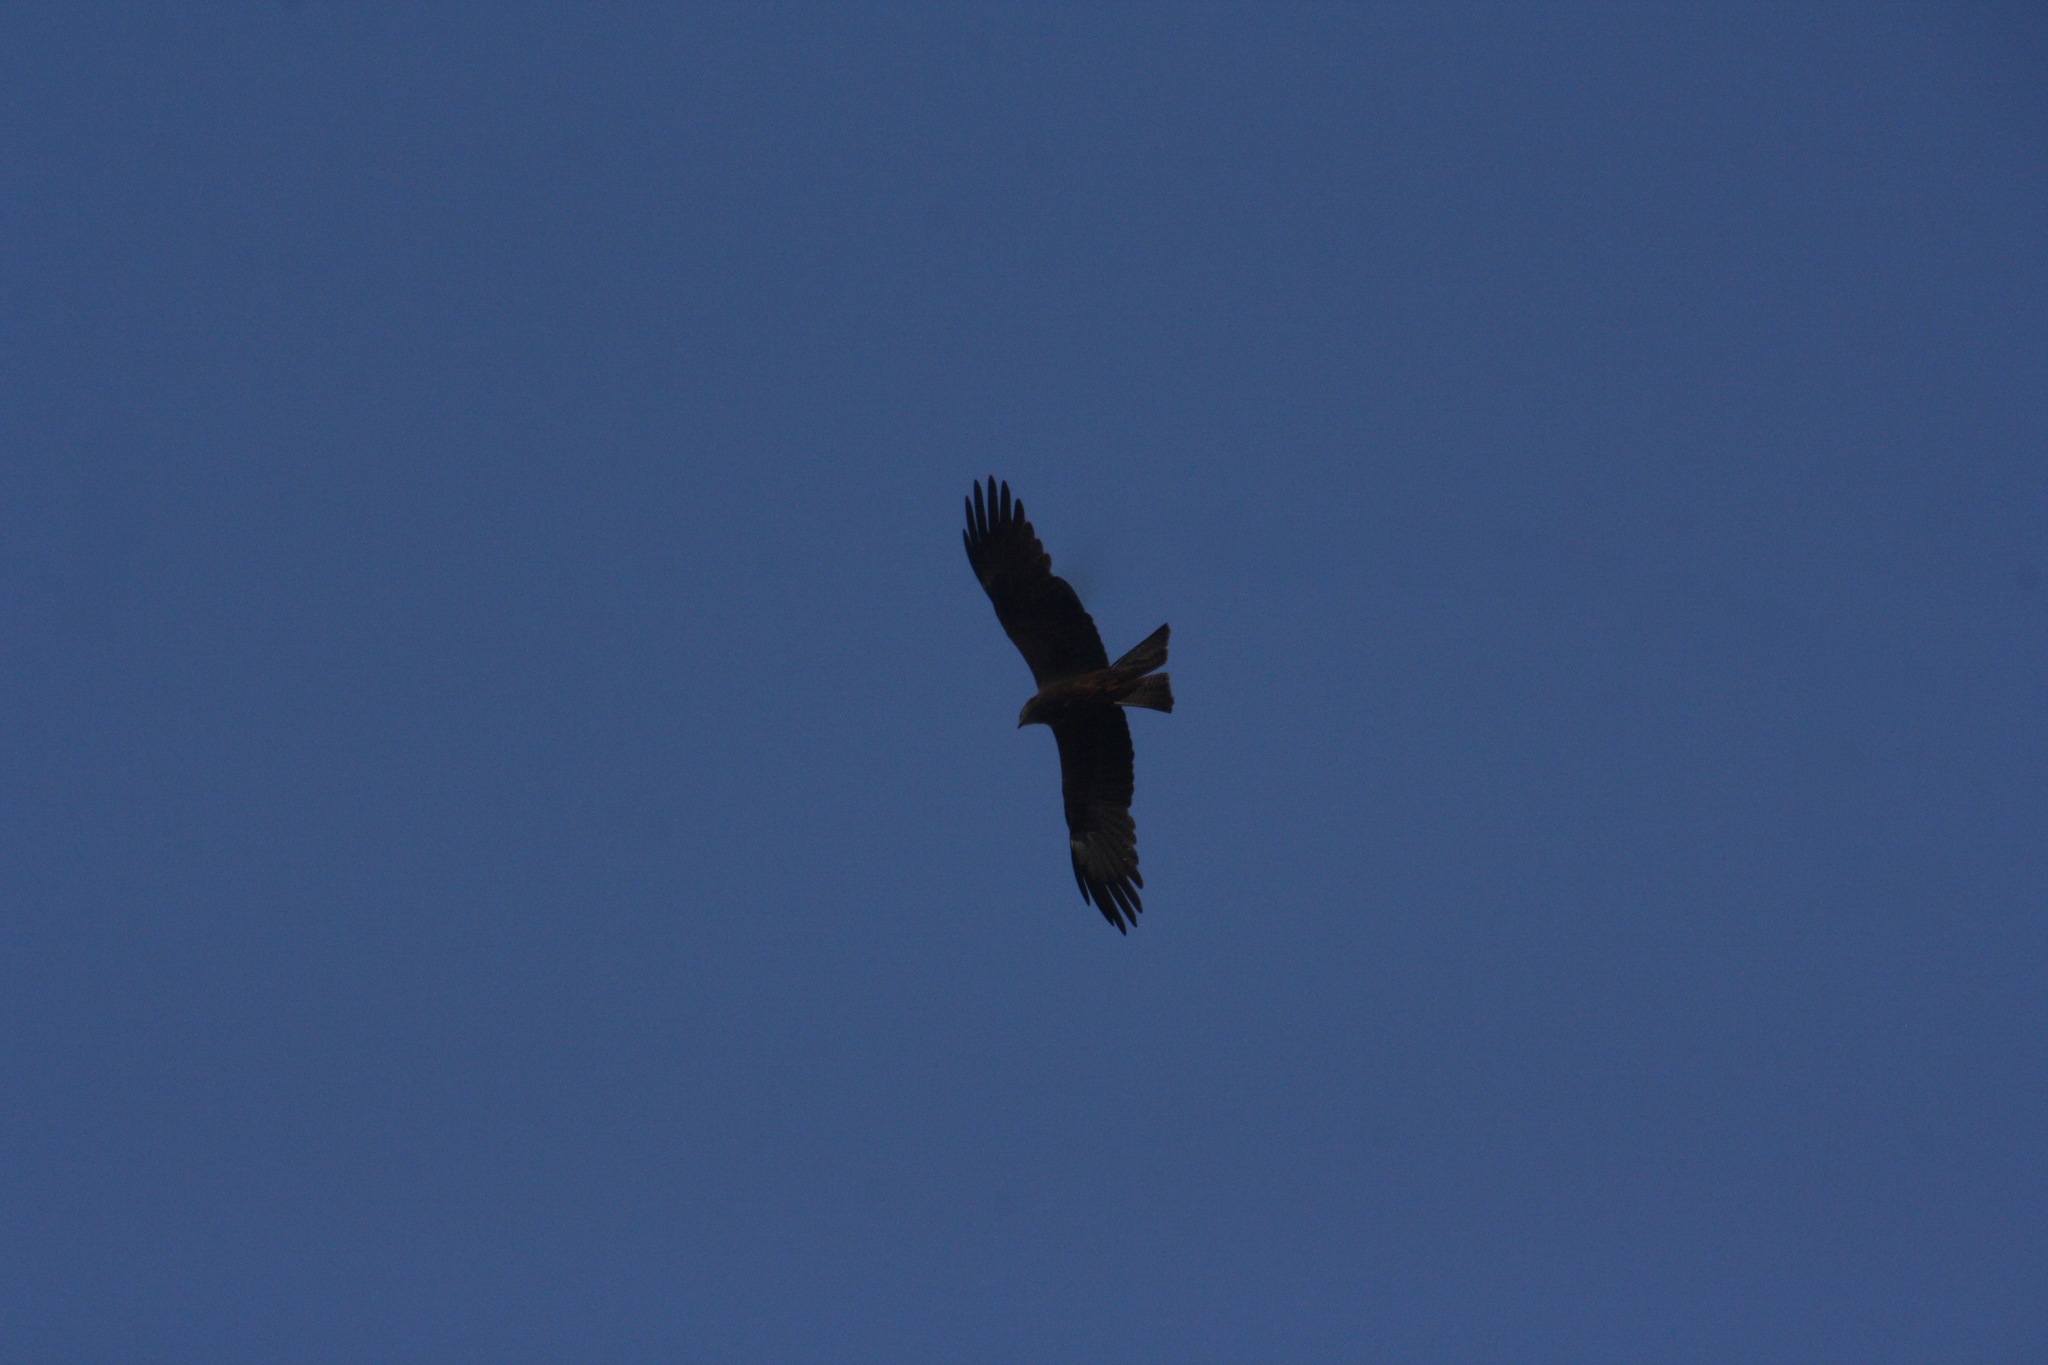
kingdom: Animalia
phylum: Chordata
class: Aves
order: Accipitriformes
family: Accipitridae
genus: Milvus
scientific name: Milvus migrans
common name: Black kite
